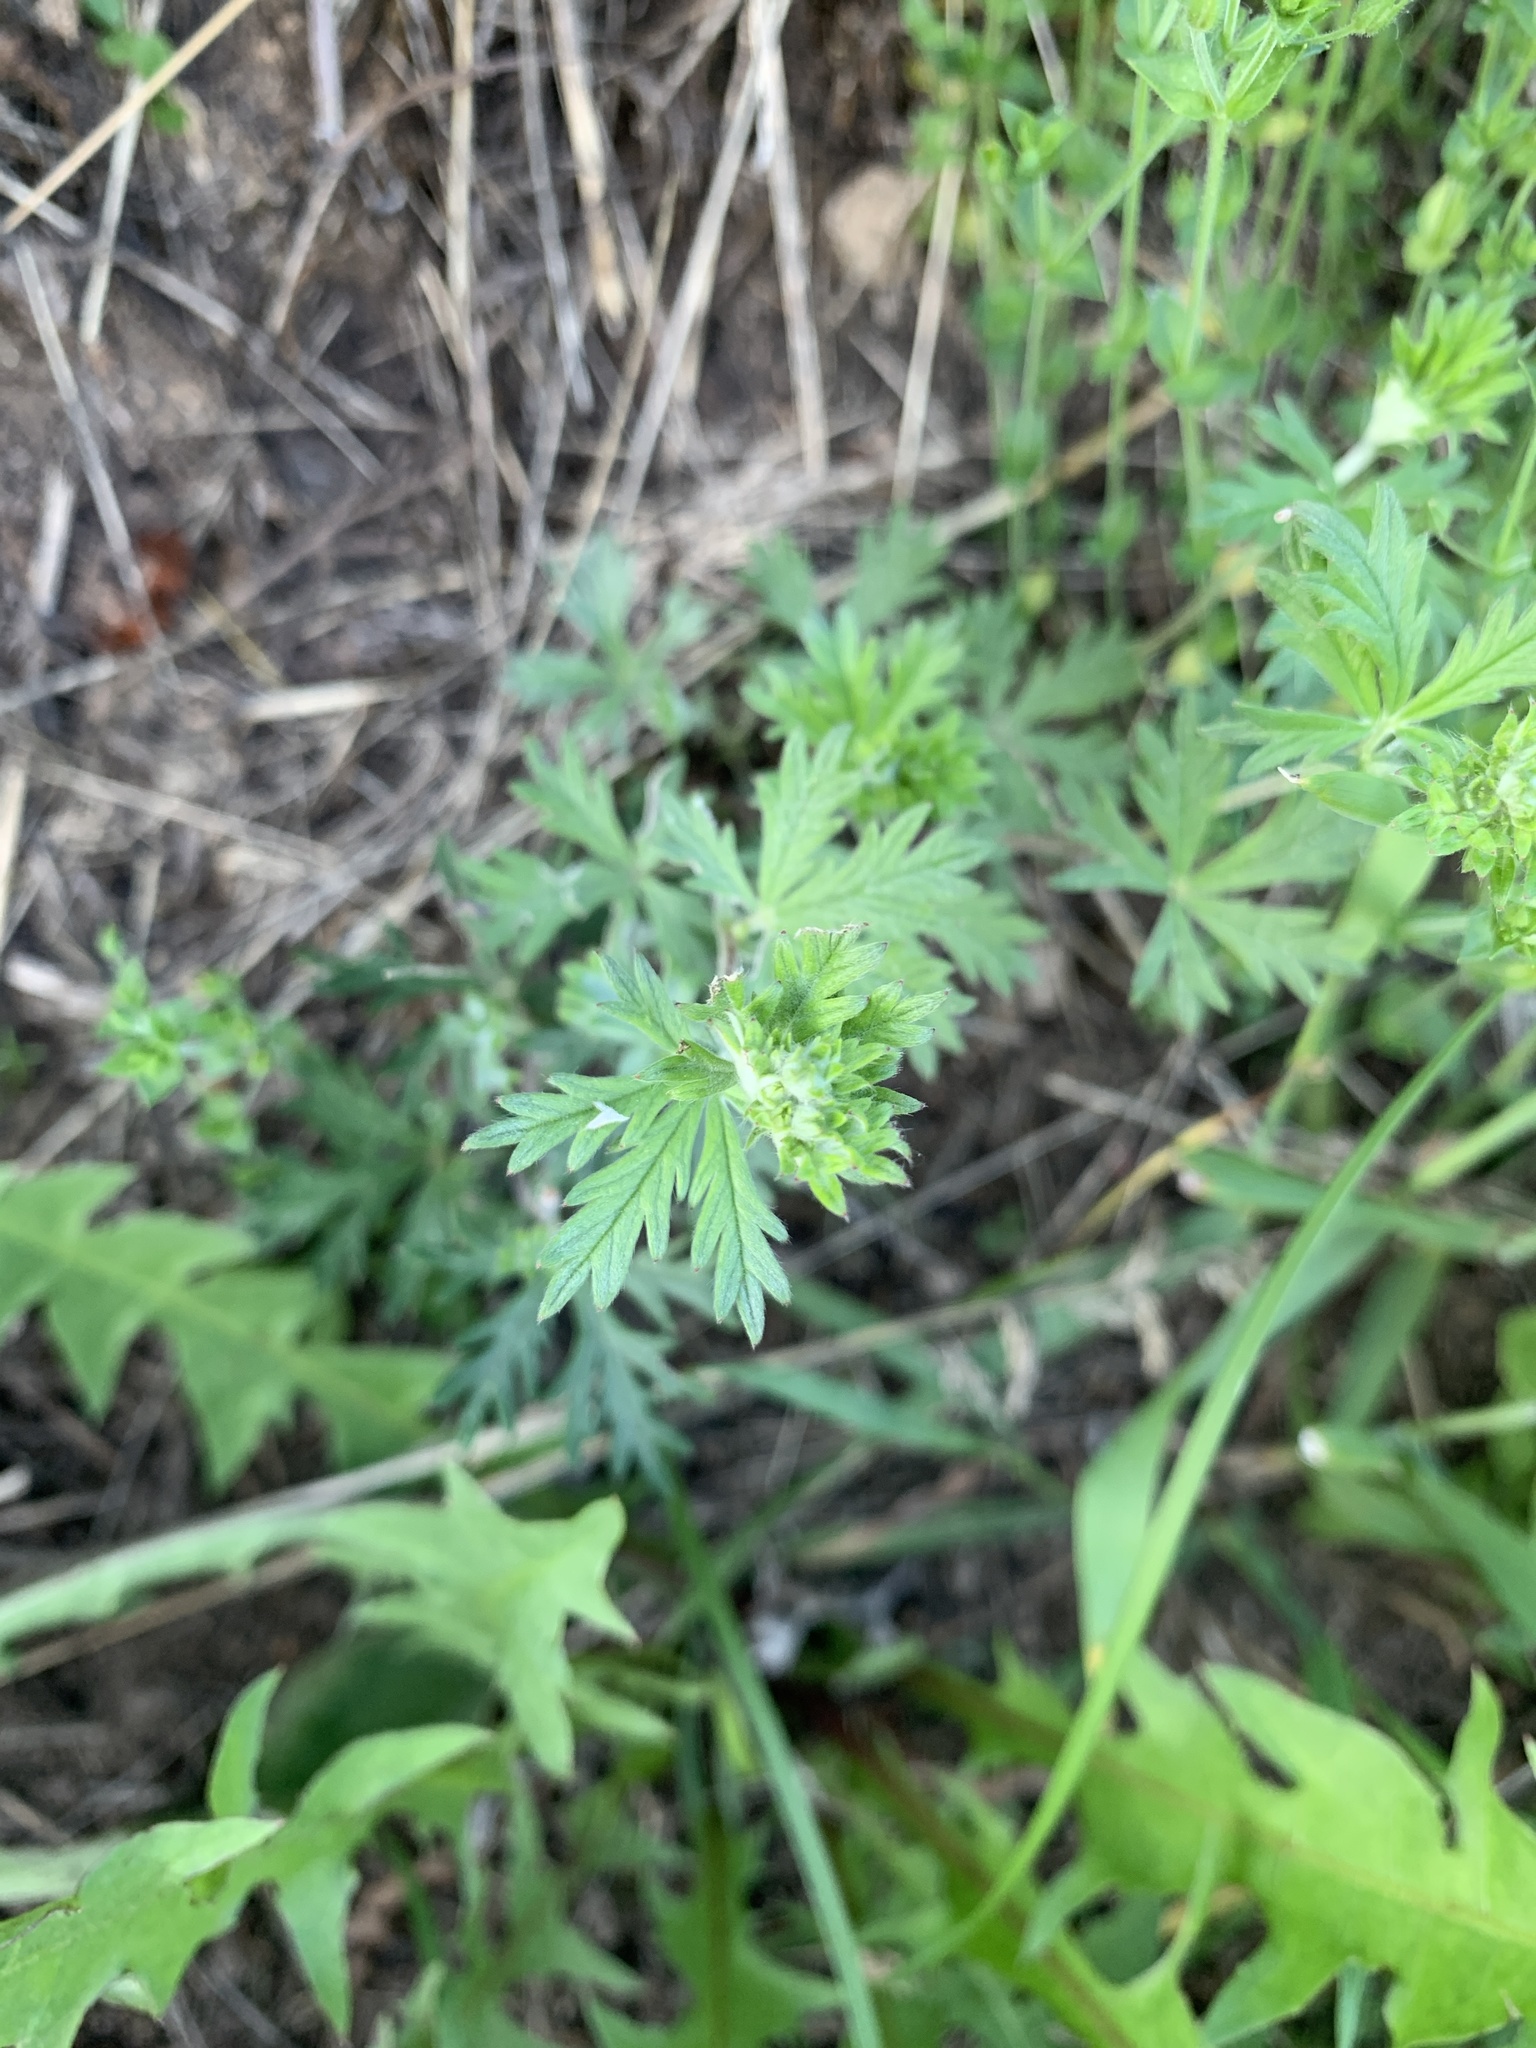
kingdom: Plantae
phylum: Tracheophyta
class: Magnoliopsida
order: Rosales
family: Rosaceae
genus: Potentilla
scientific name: Potentilla argentea
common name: Hoary cinquefoil
